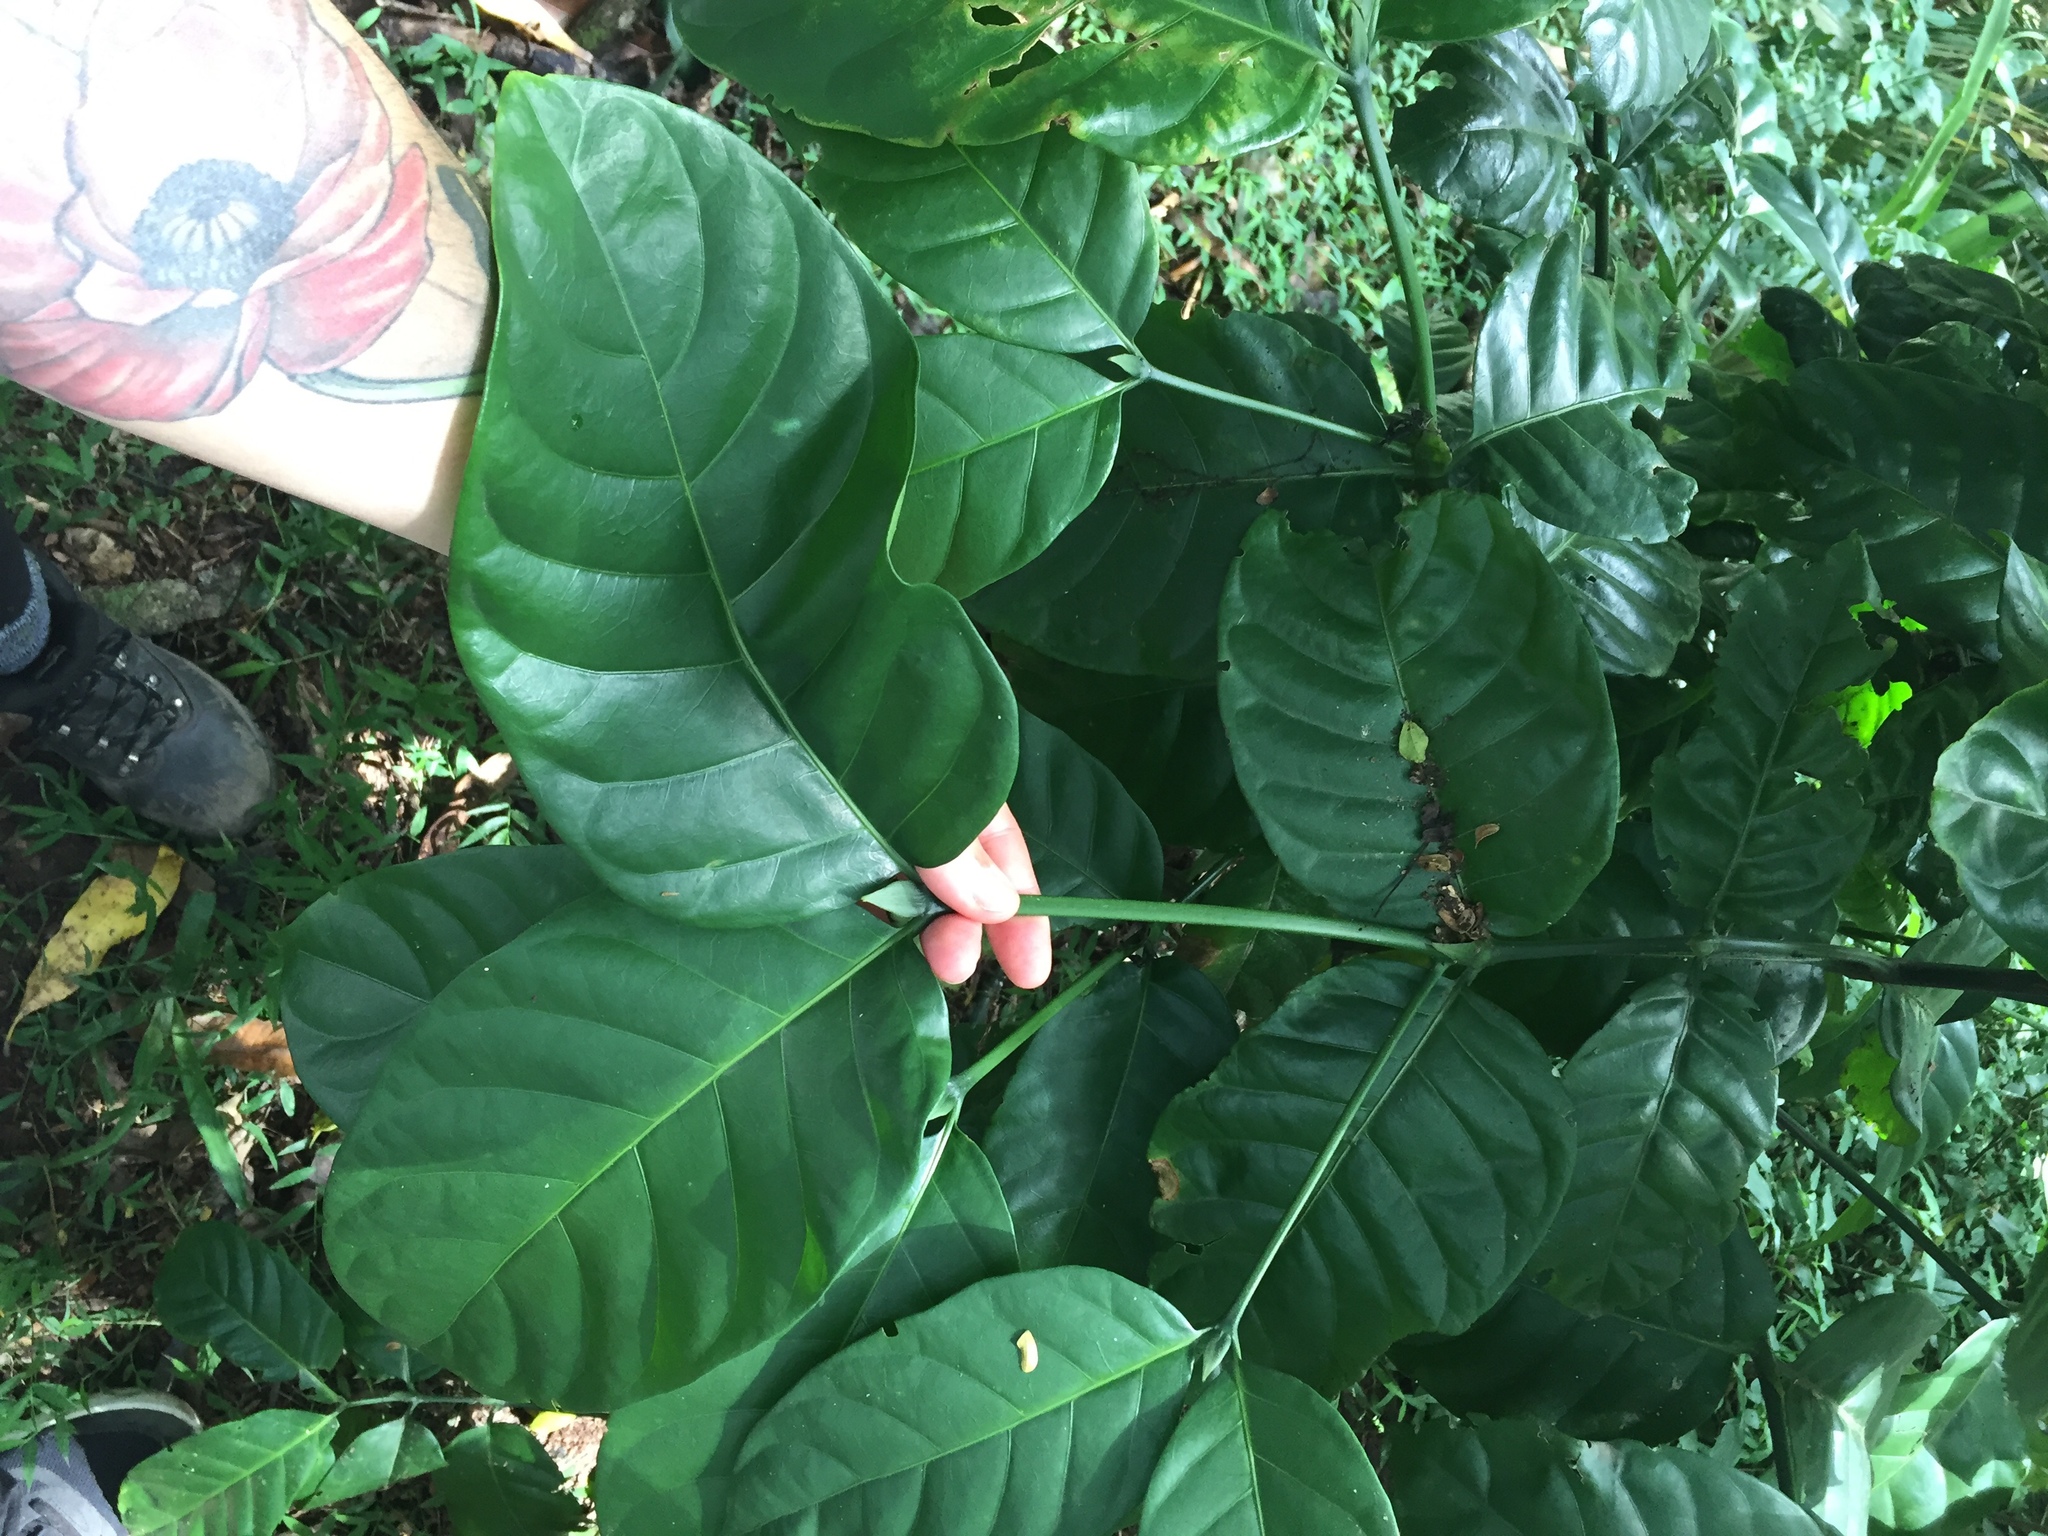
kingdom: Plantae
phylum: Tracheophyta
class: Magnoliopsida
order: Gentianales
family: Rubiaceae
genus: Oxyanthus
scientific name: Oxyanthus pyriformis
